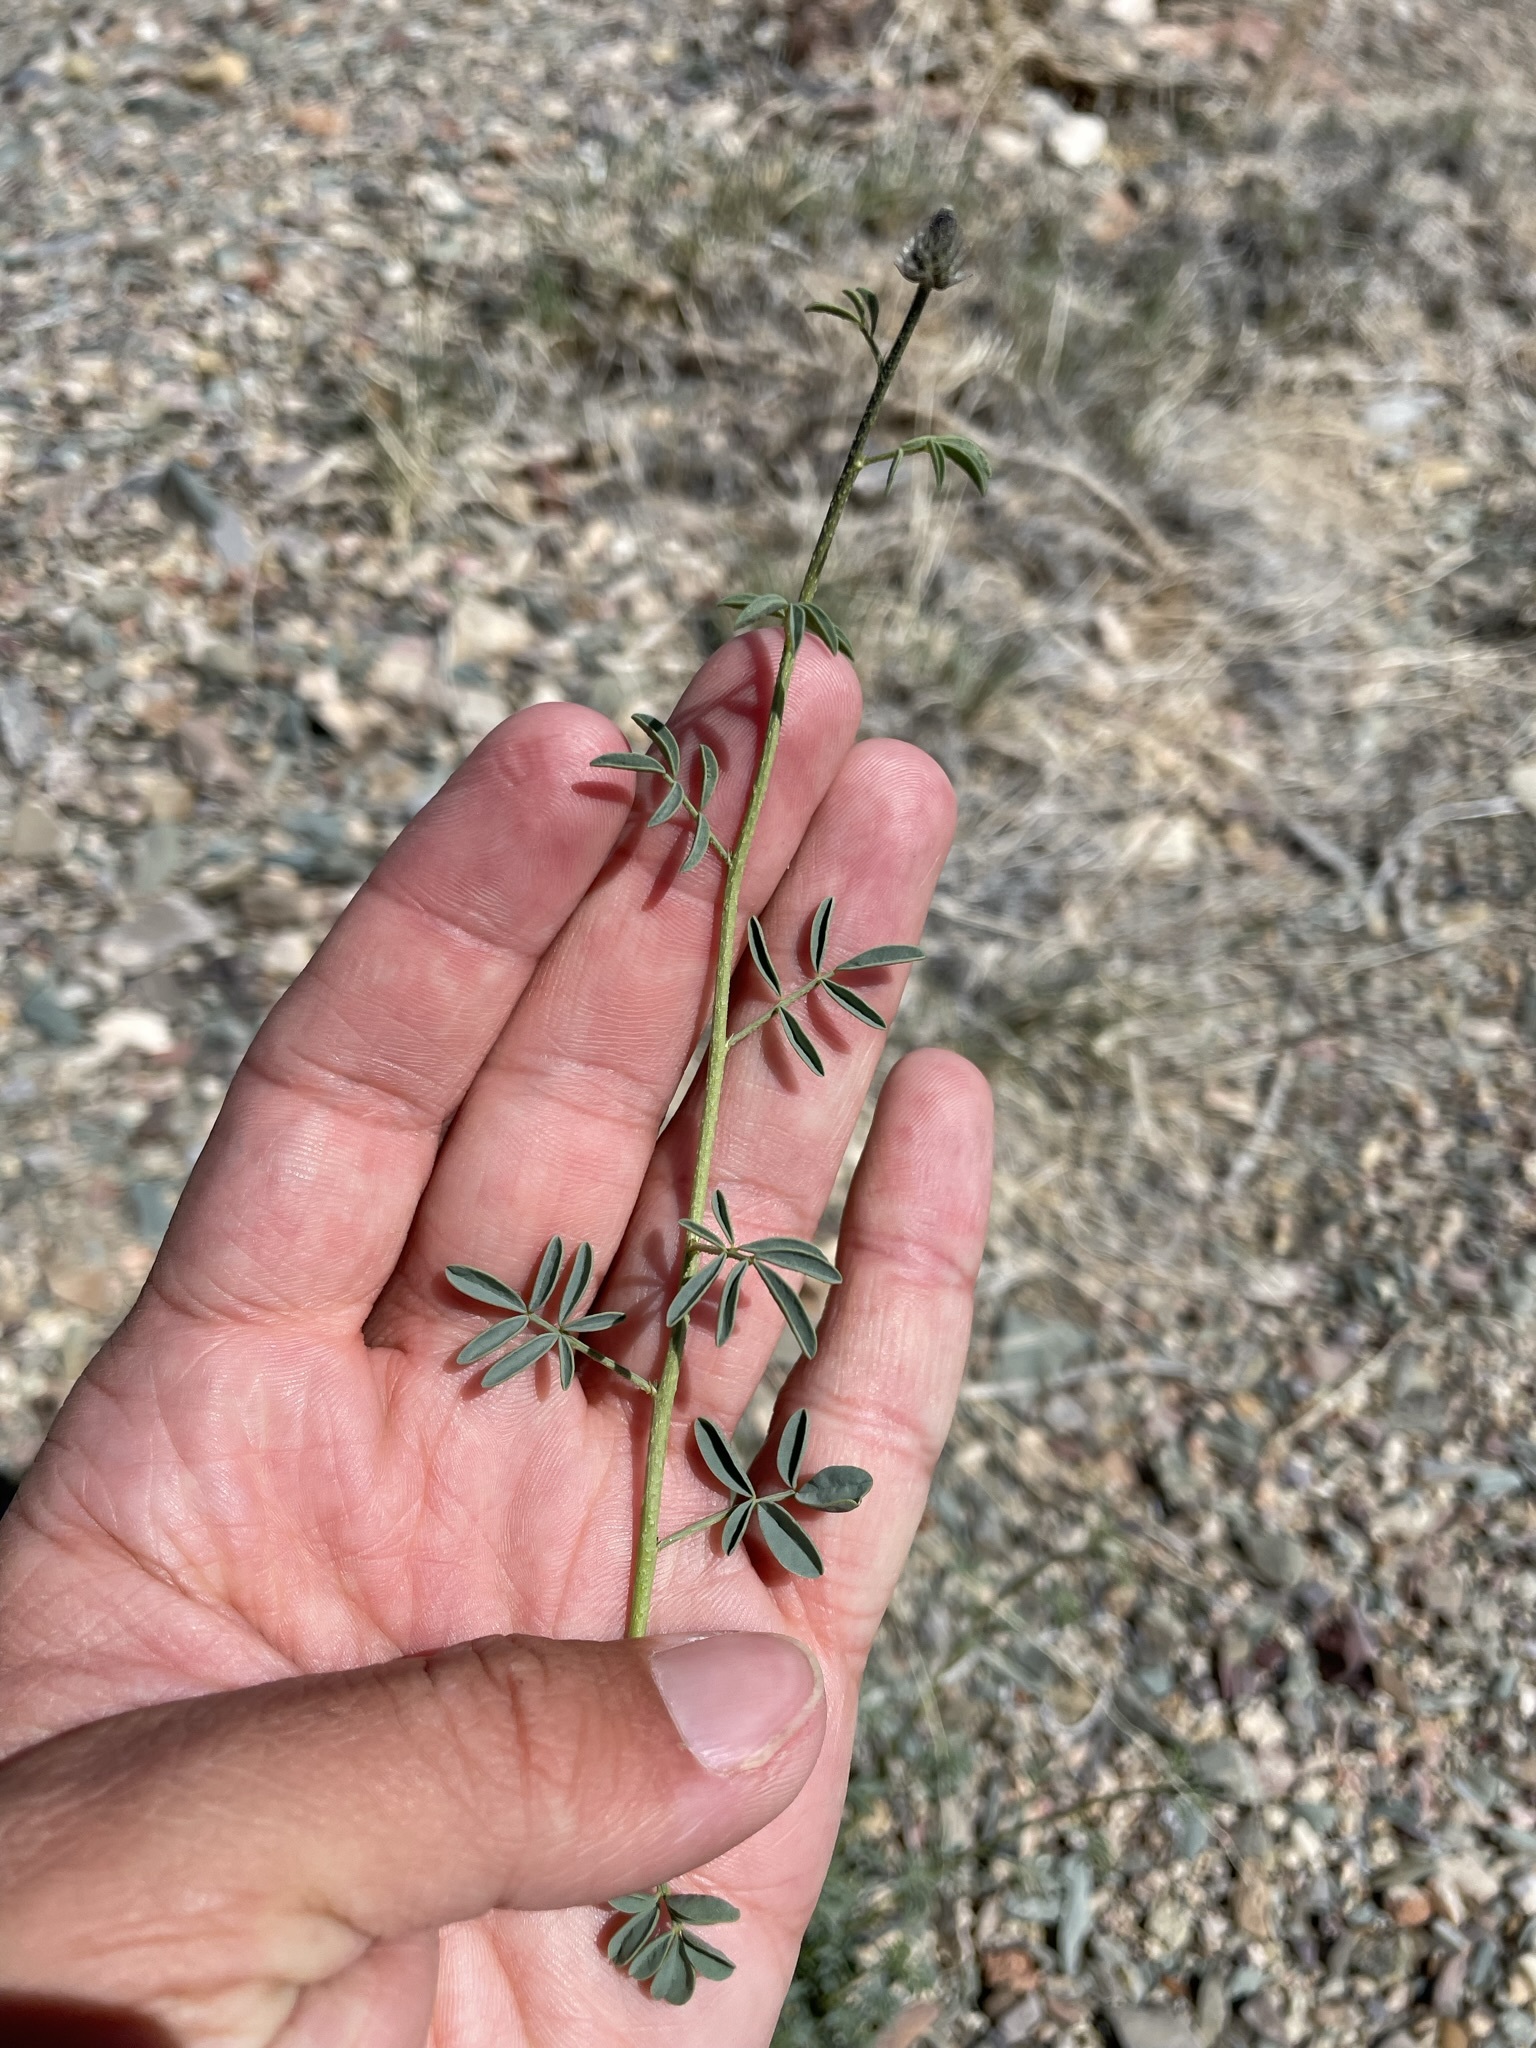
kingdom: Plantae
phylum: Tracheophyta
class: Magnoliopsida
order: Fabales
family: Fabaceae
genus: Dalea
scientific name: Dalea searlsiae
